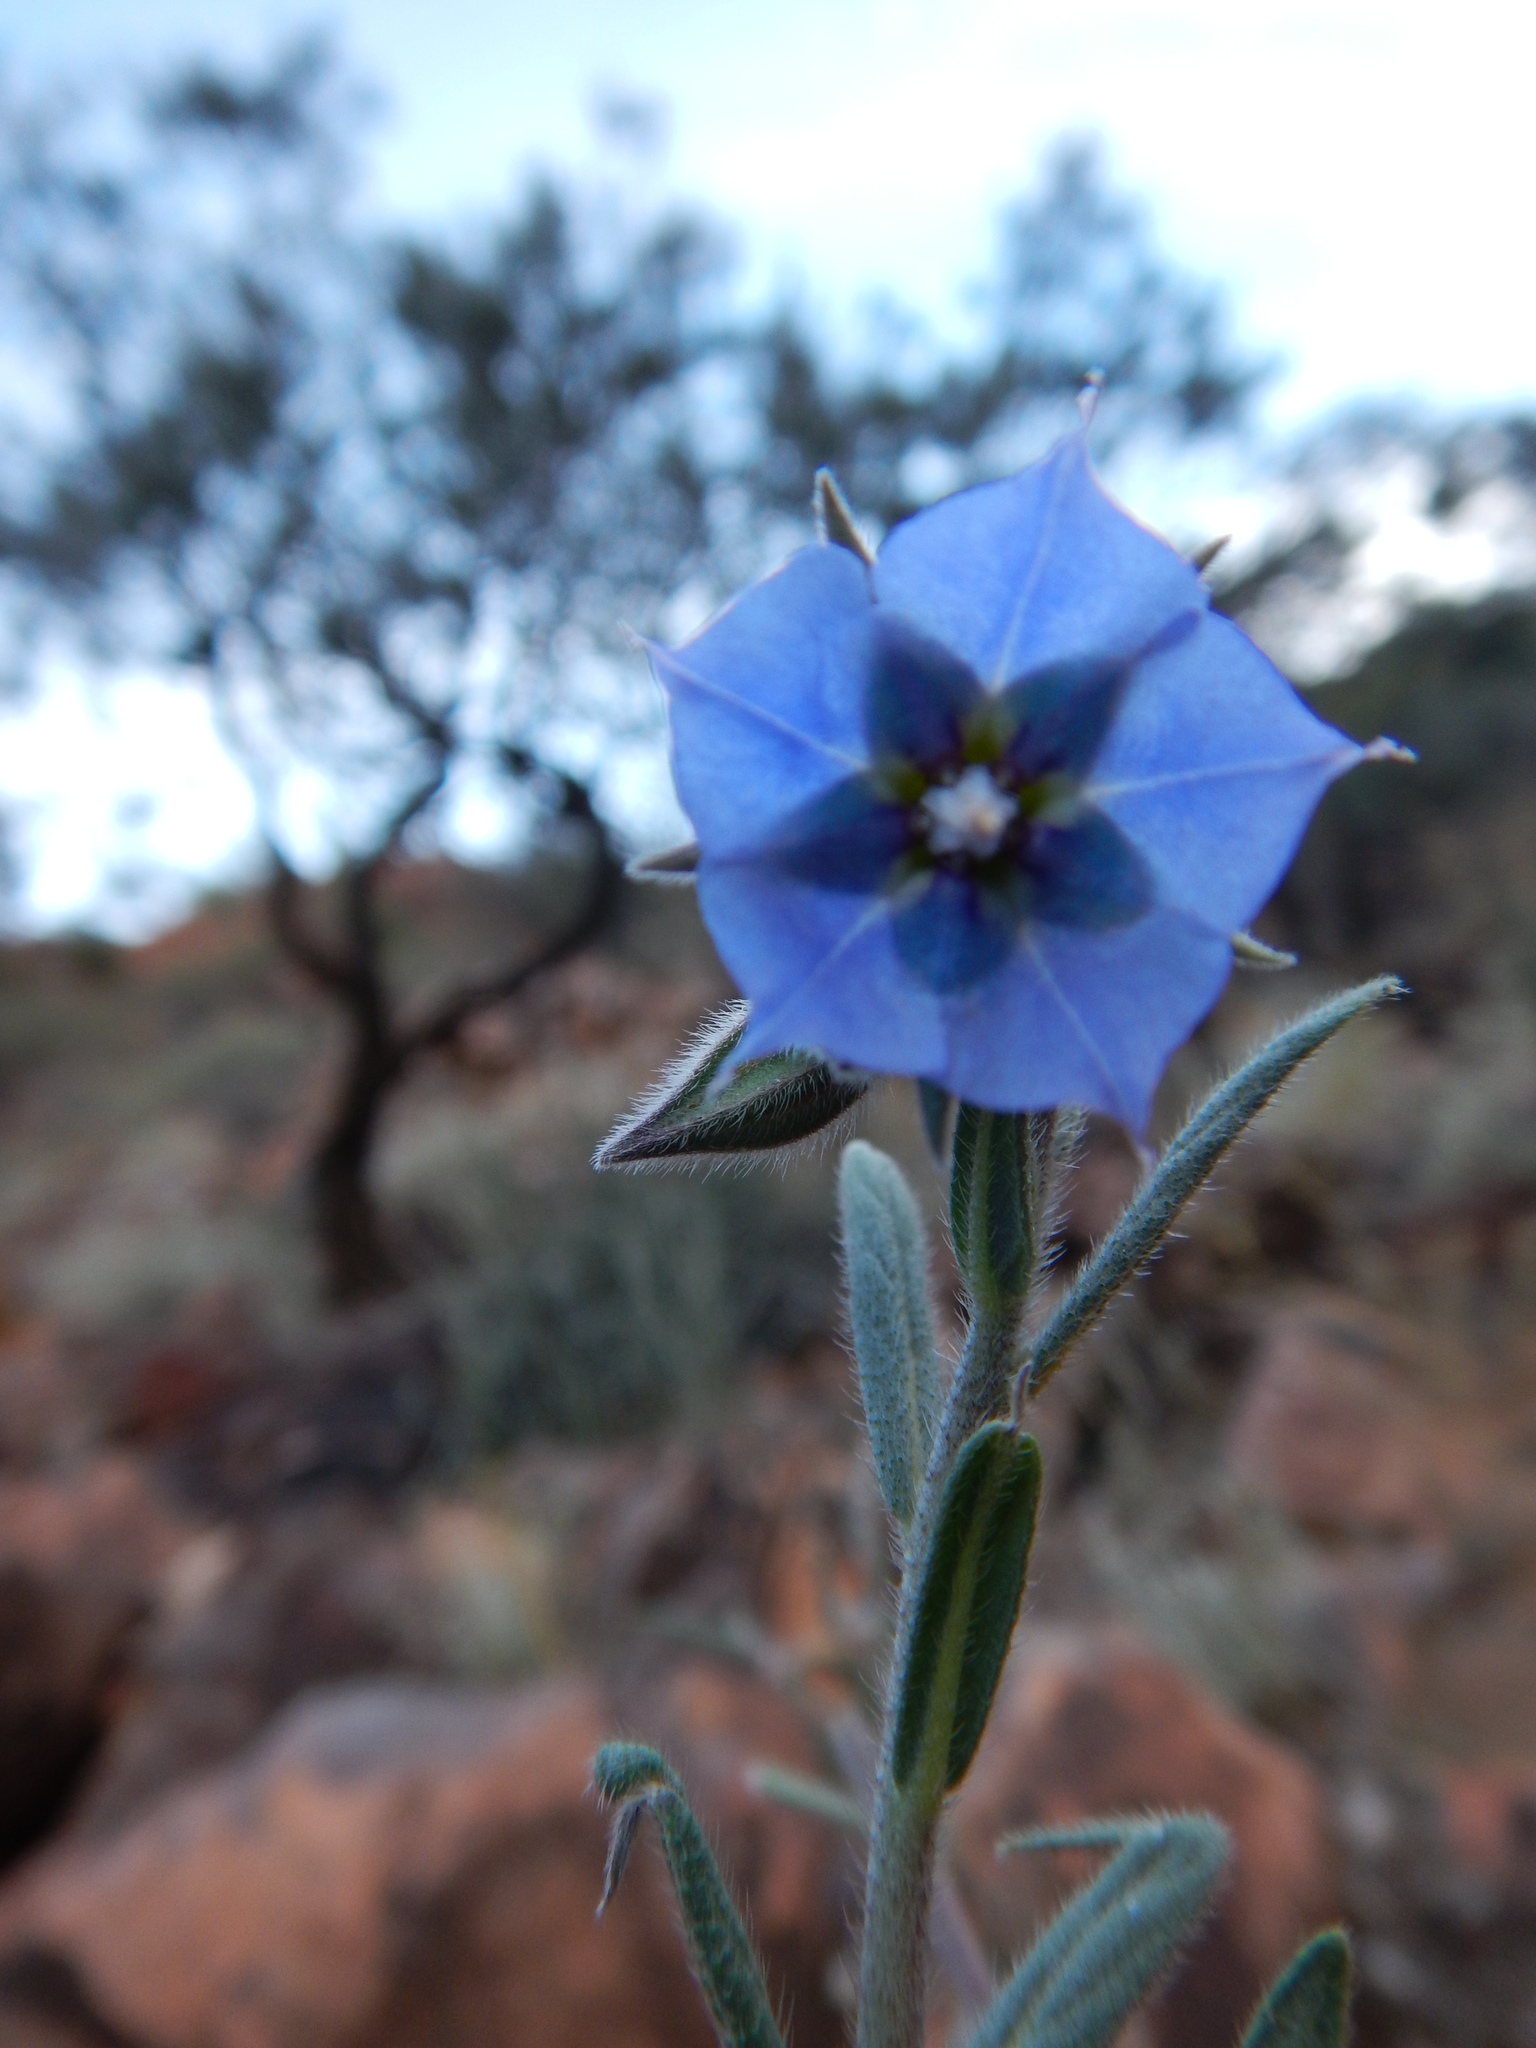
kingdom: Plantae
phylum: Tracheophyta
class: Magnoliopsida
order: Boraginales
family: Boraginaceae
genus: Trichodesma
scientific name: Trichodesma zeylanicum
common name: Camelbush
